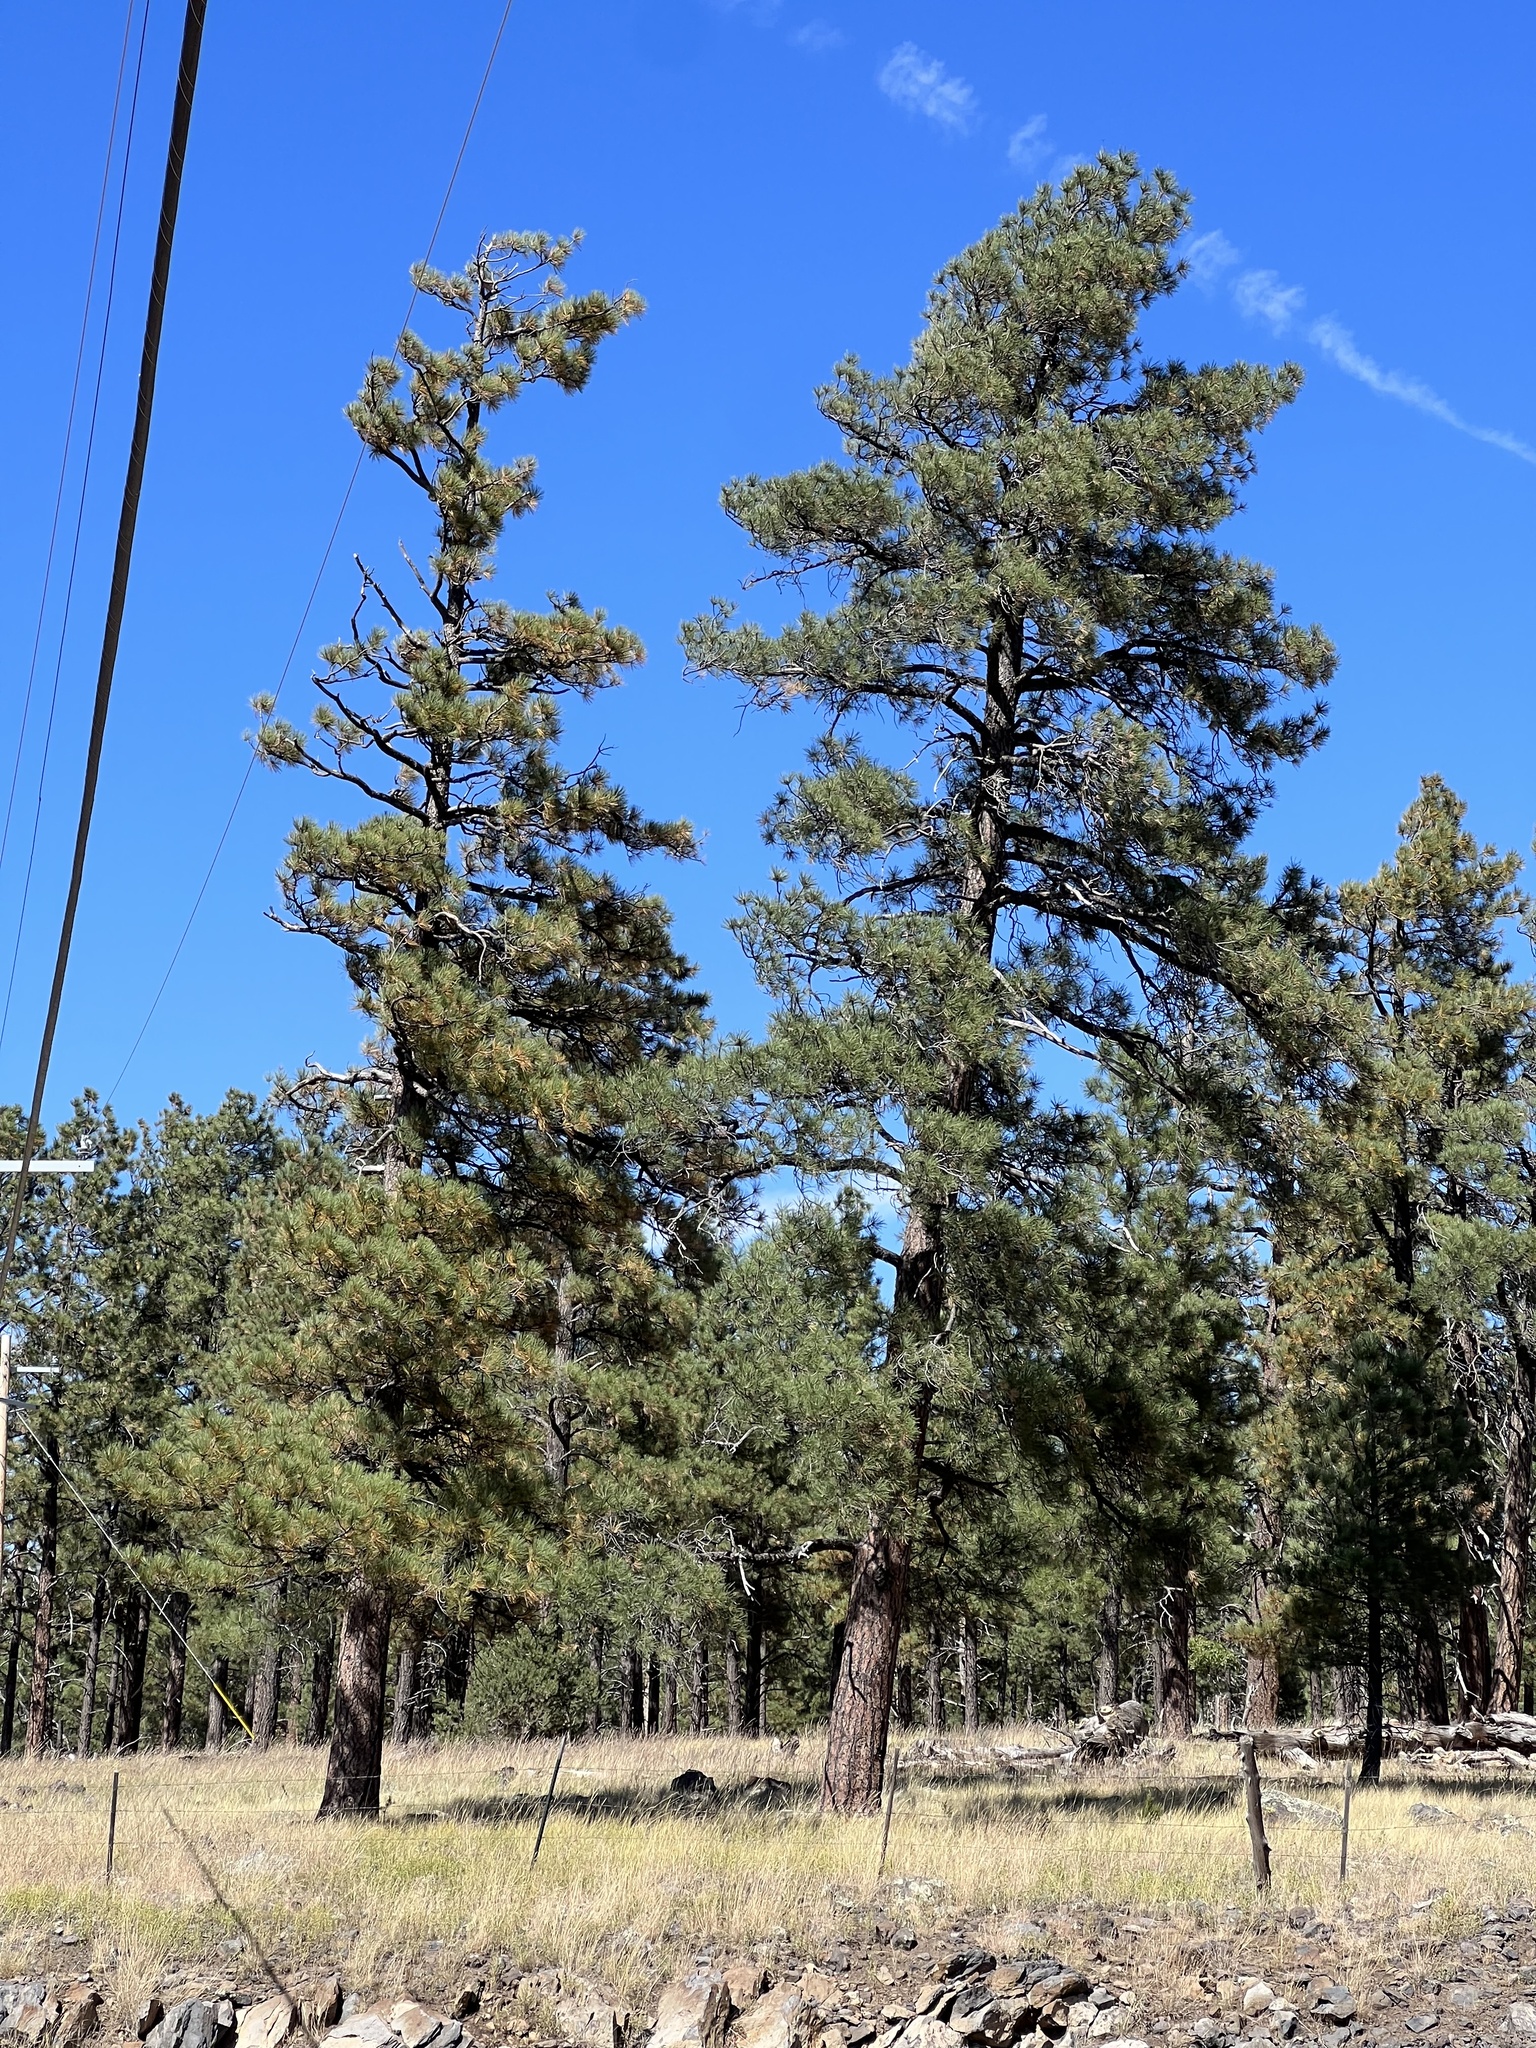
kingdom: Plantae
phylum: Tracheophyta
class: Pinopsida
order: Pinales
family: Pinaceae
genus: Pinus
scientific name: Pinus ponderosa
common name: Western yellow-pine
